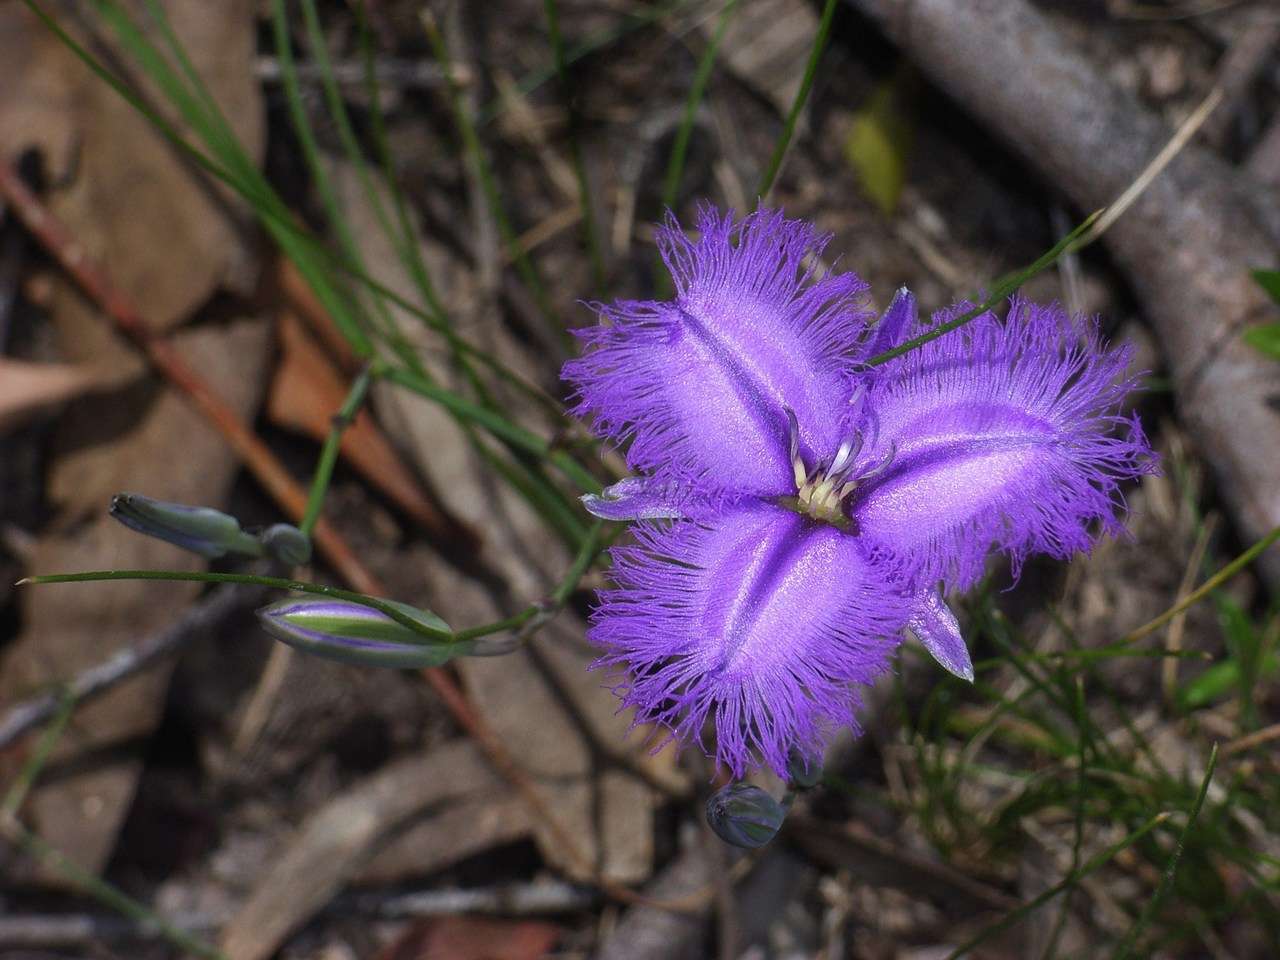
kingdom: Plantae
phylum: Tracheophyta
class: Liliopsida
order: Asparagales
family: Asparagaceae
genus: Thysanotus
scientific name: Thysanotus tuberosus
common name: Common fringed-lily
